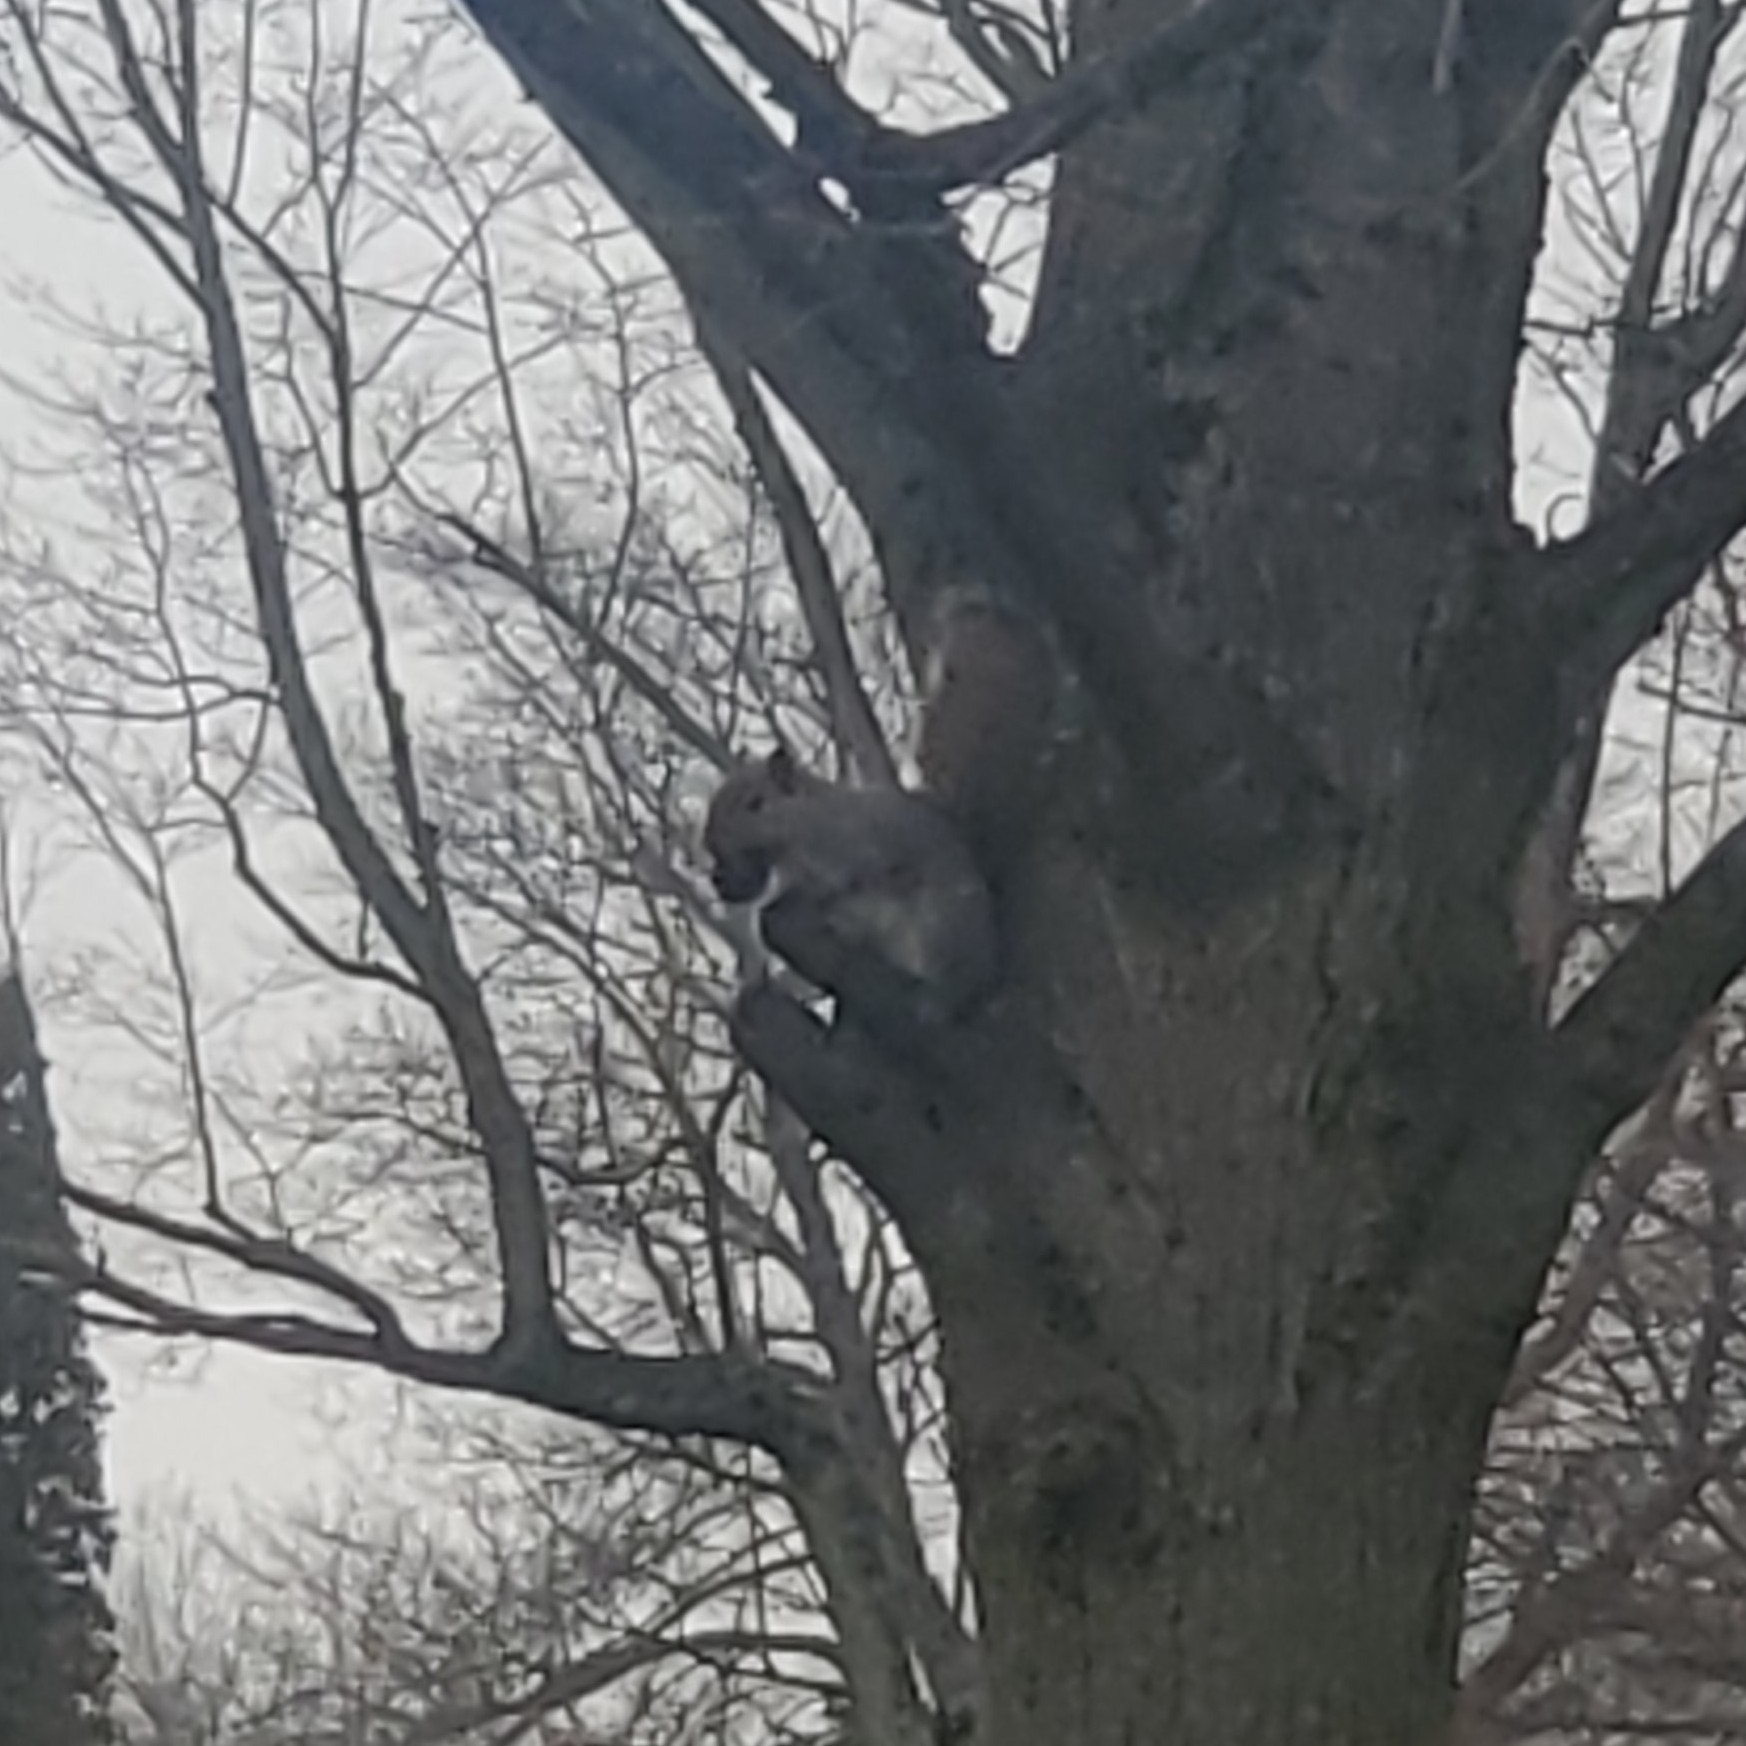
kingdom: Animalia
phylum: Chordata
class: Mammalia
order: Rodentia
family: Sciuridae
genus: Sciurus
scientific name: Sciurus carolinensis
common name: Eastern gray squirrel
